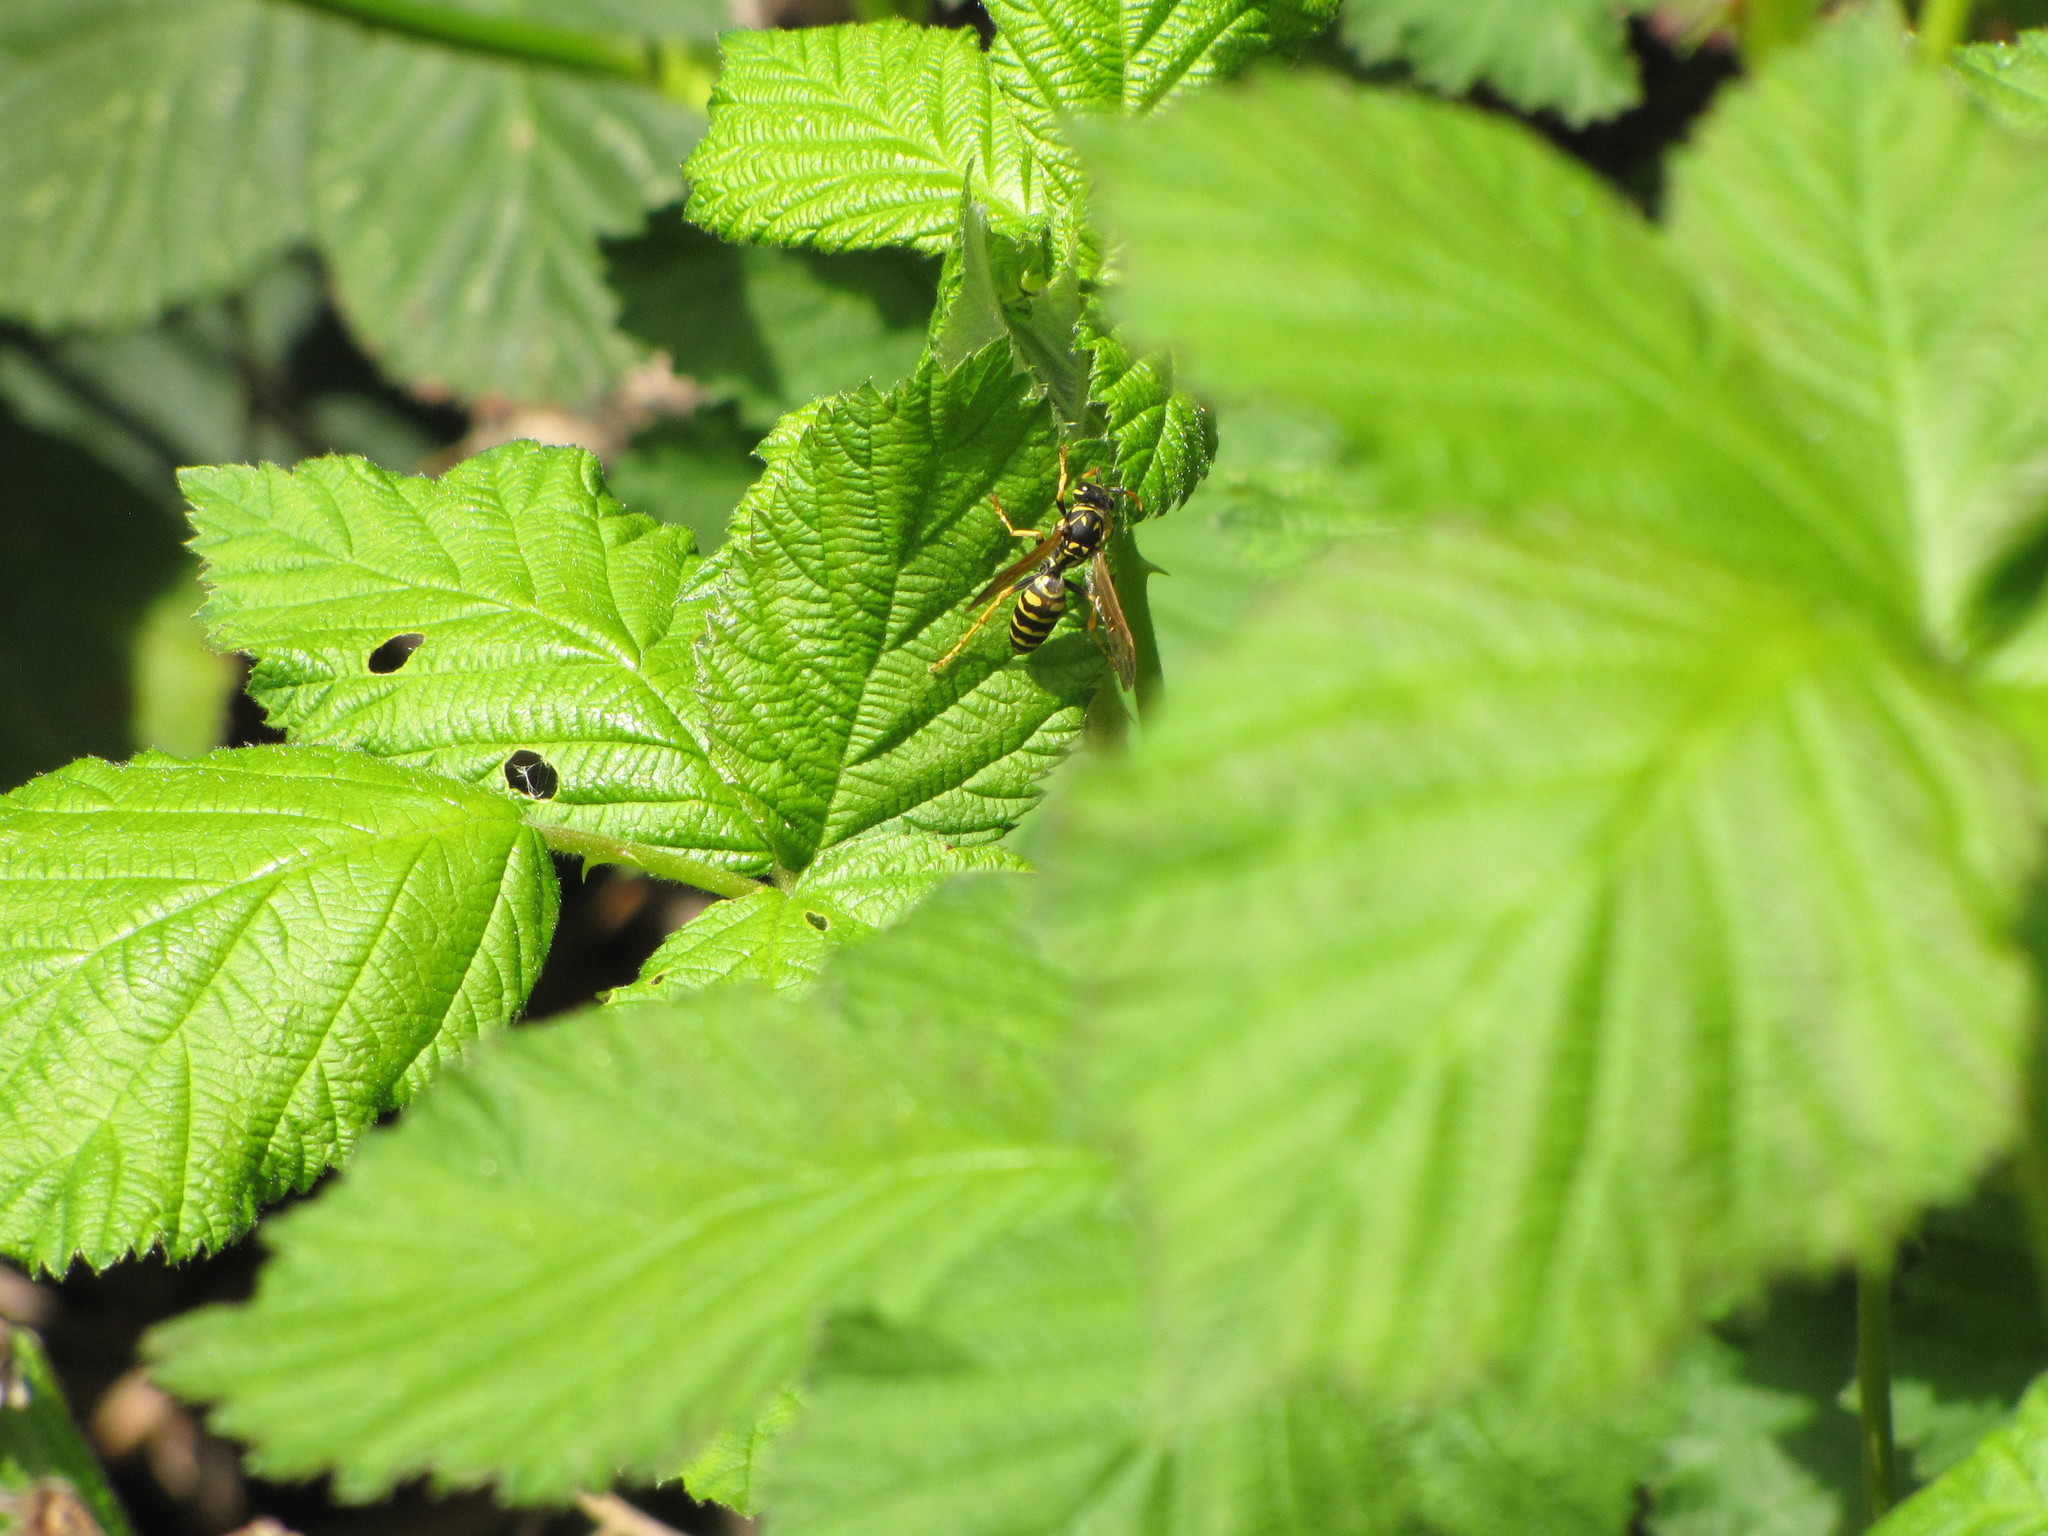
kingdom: Animalia
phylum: Arthropoda
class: Insecta
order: Hymenoptera
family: Eumenidae
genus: Polistes
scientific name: Polistes dominula
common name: Paper wasp
